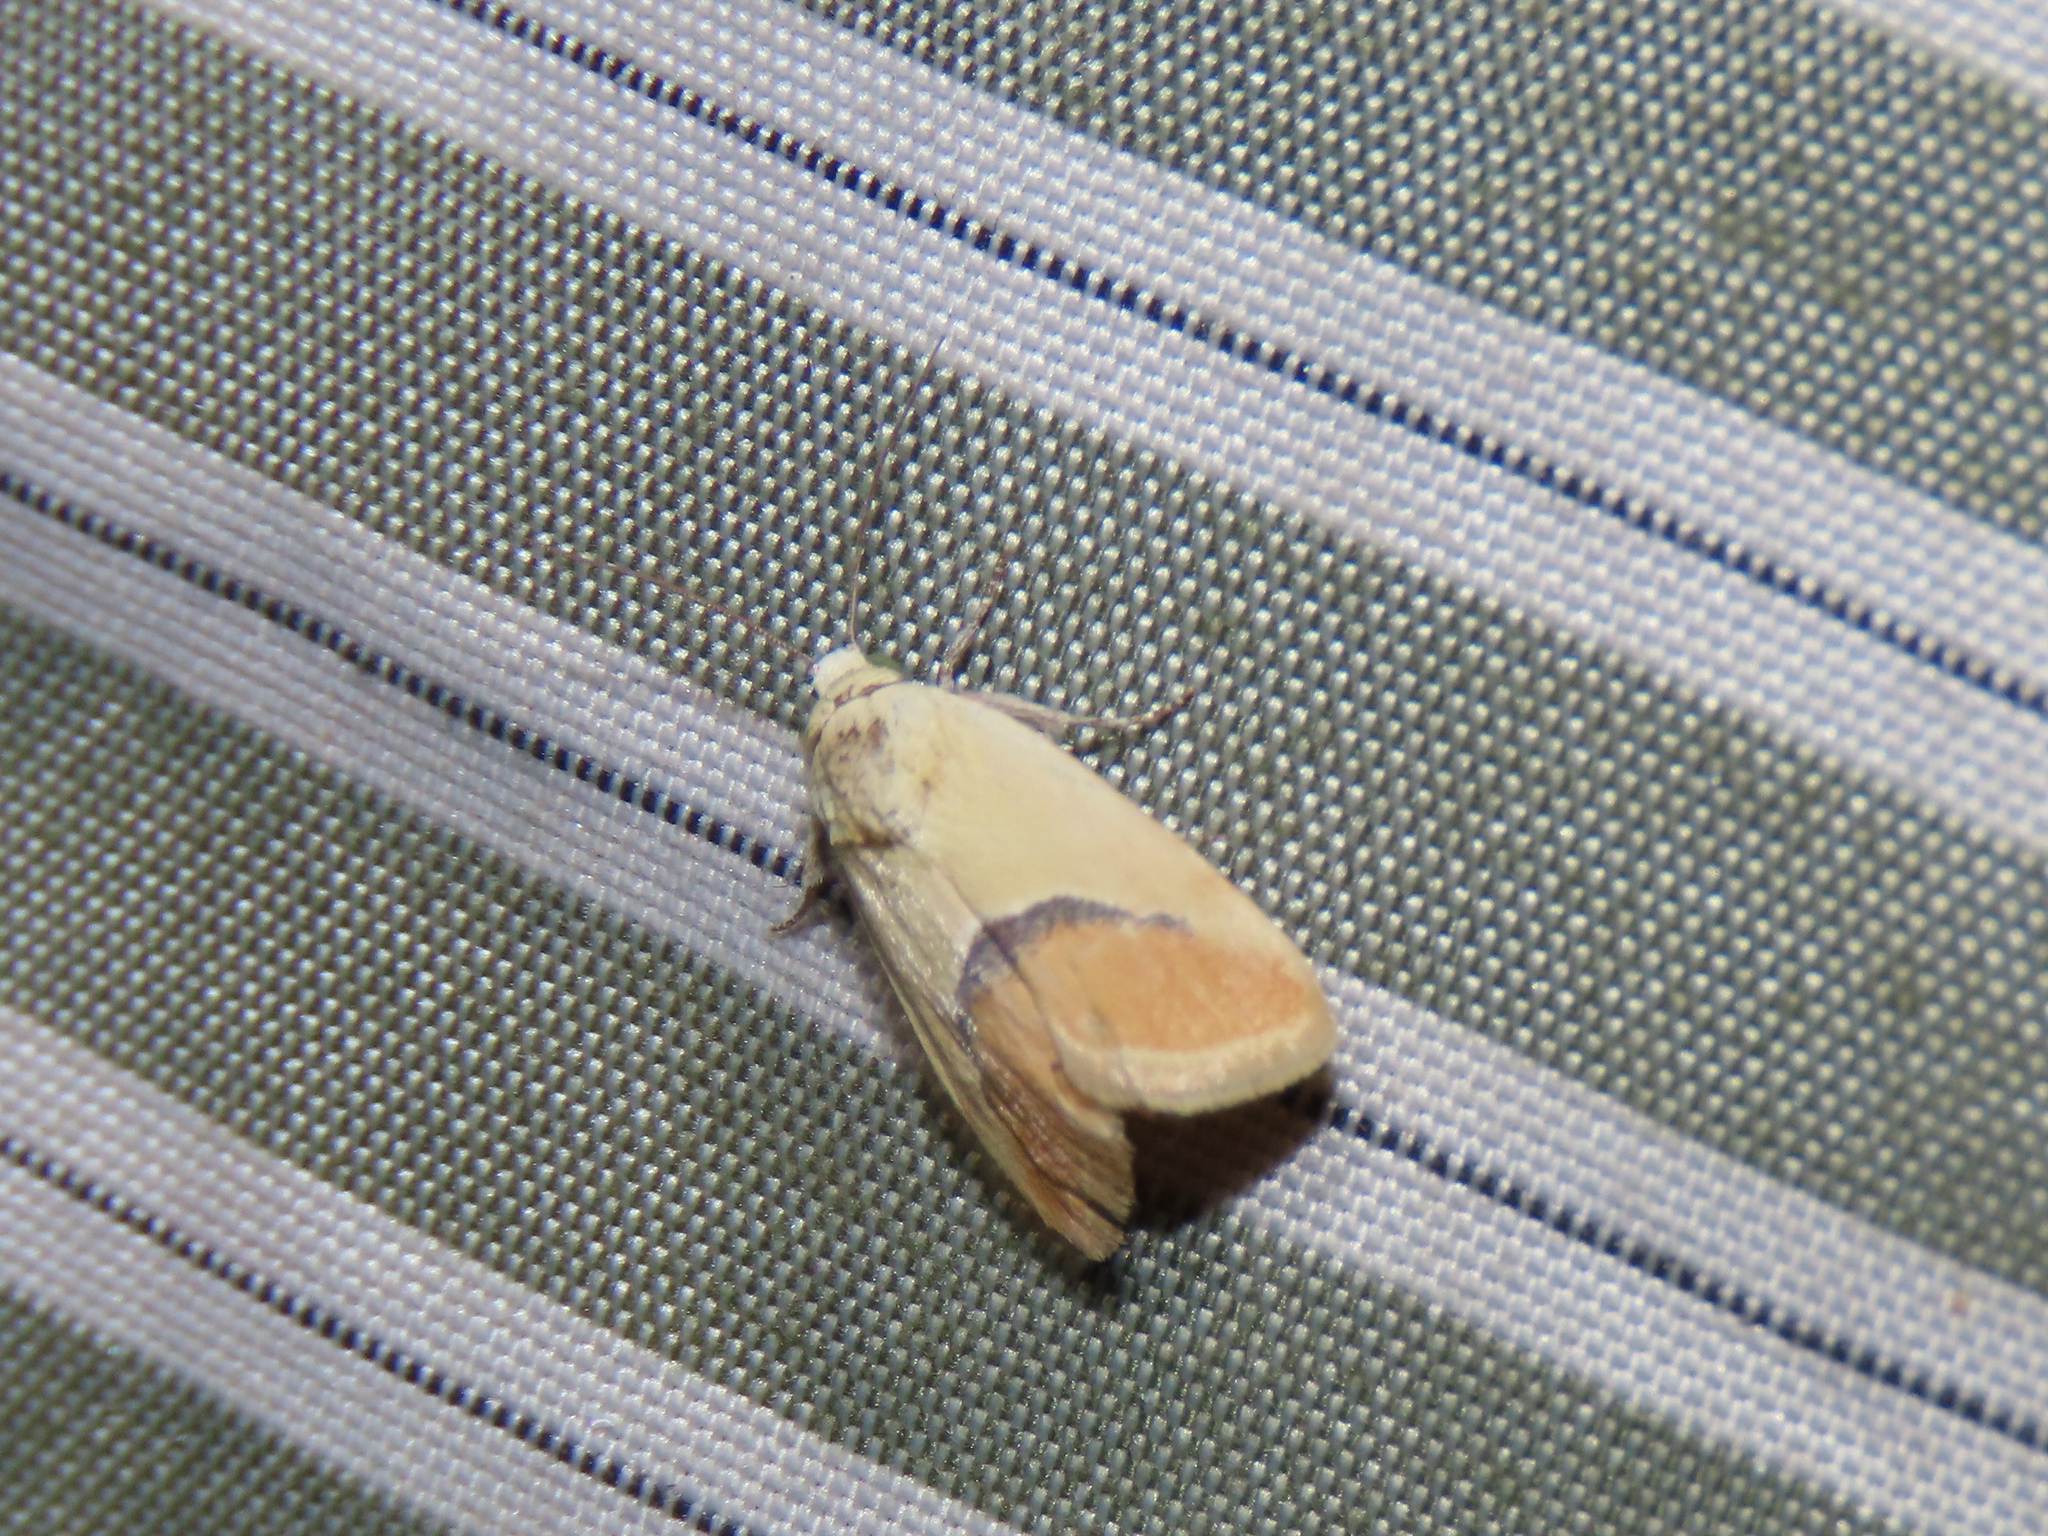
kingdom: Animalia
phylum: Arthropoda
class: Insecta
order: Lepidoptera
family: Noctuidae
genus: Ponometia
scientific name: Ponometia venustula
